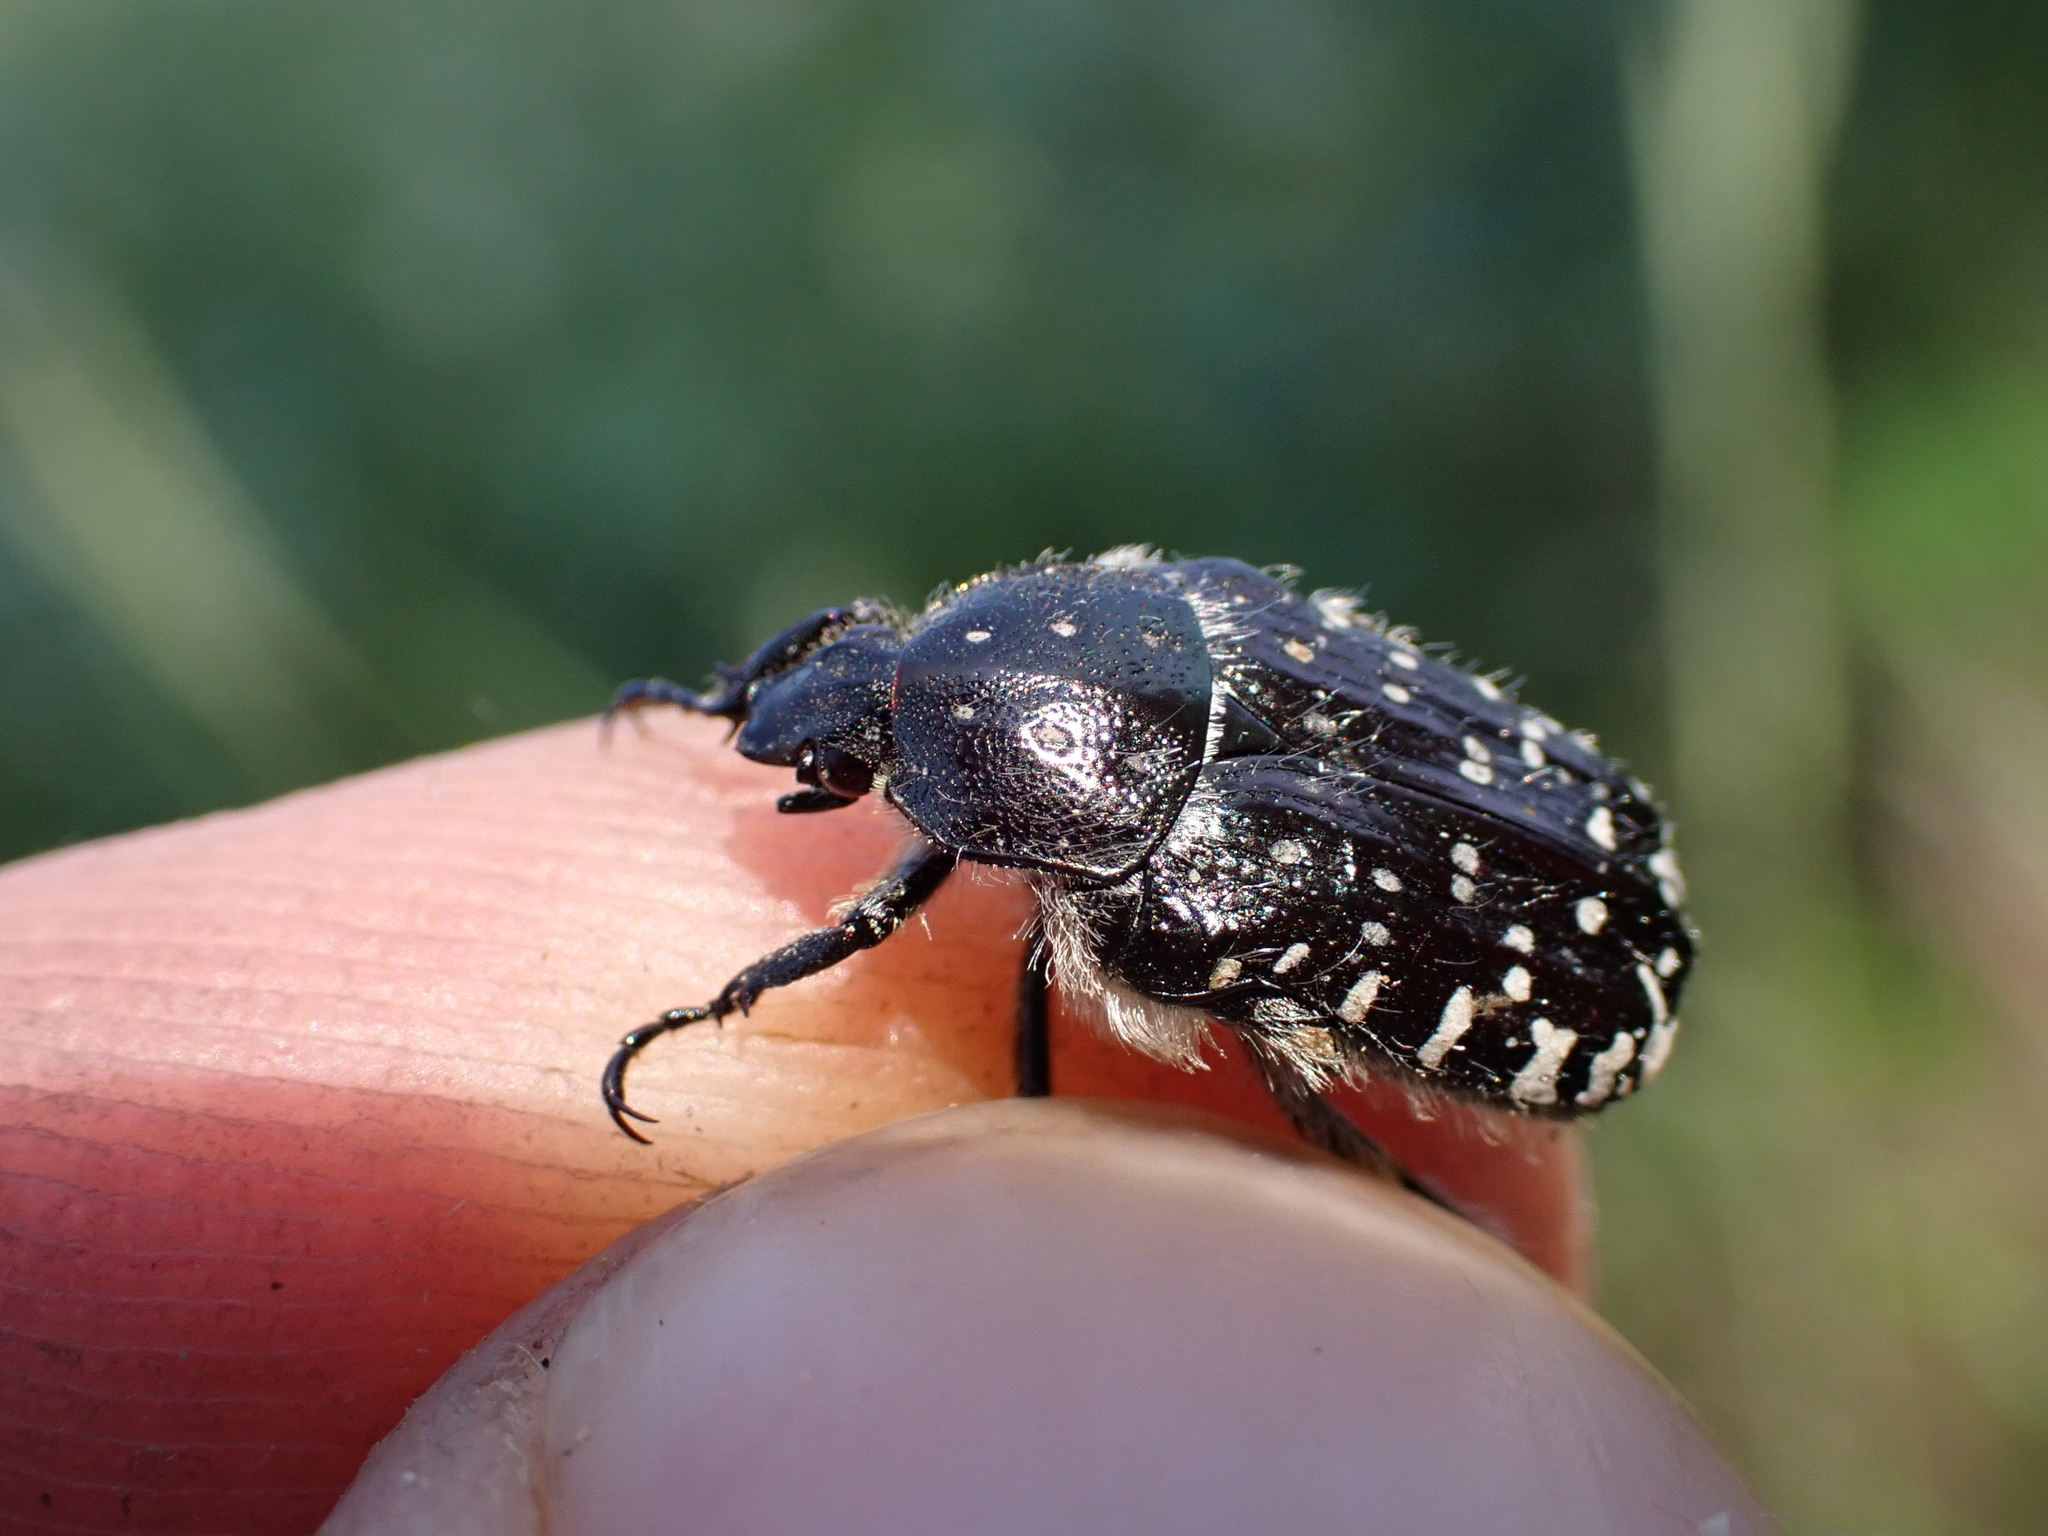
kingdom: Animalia
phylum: Arthropoda
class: Insecta
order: Coleoptera
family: Scarabaeidae
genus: Oxythyrea
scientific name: Oxythyrea funesta
